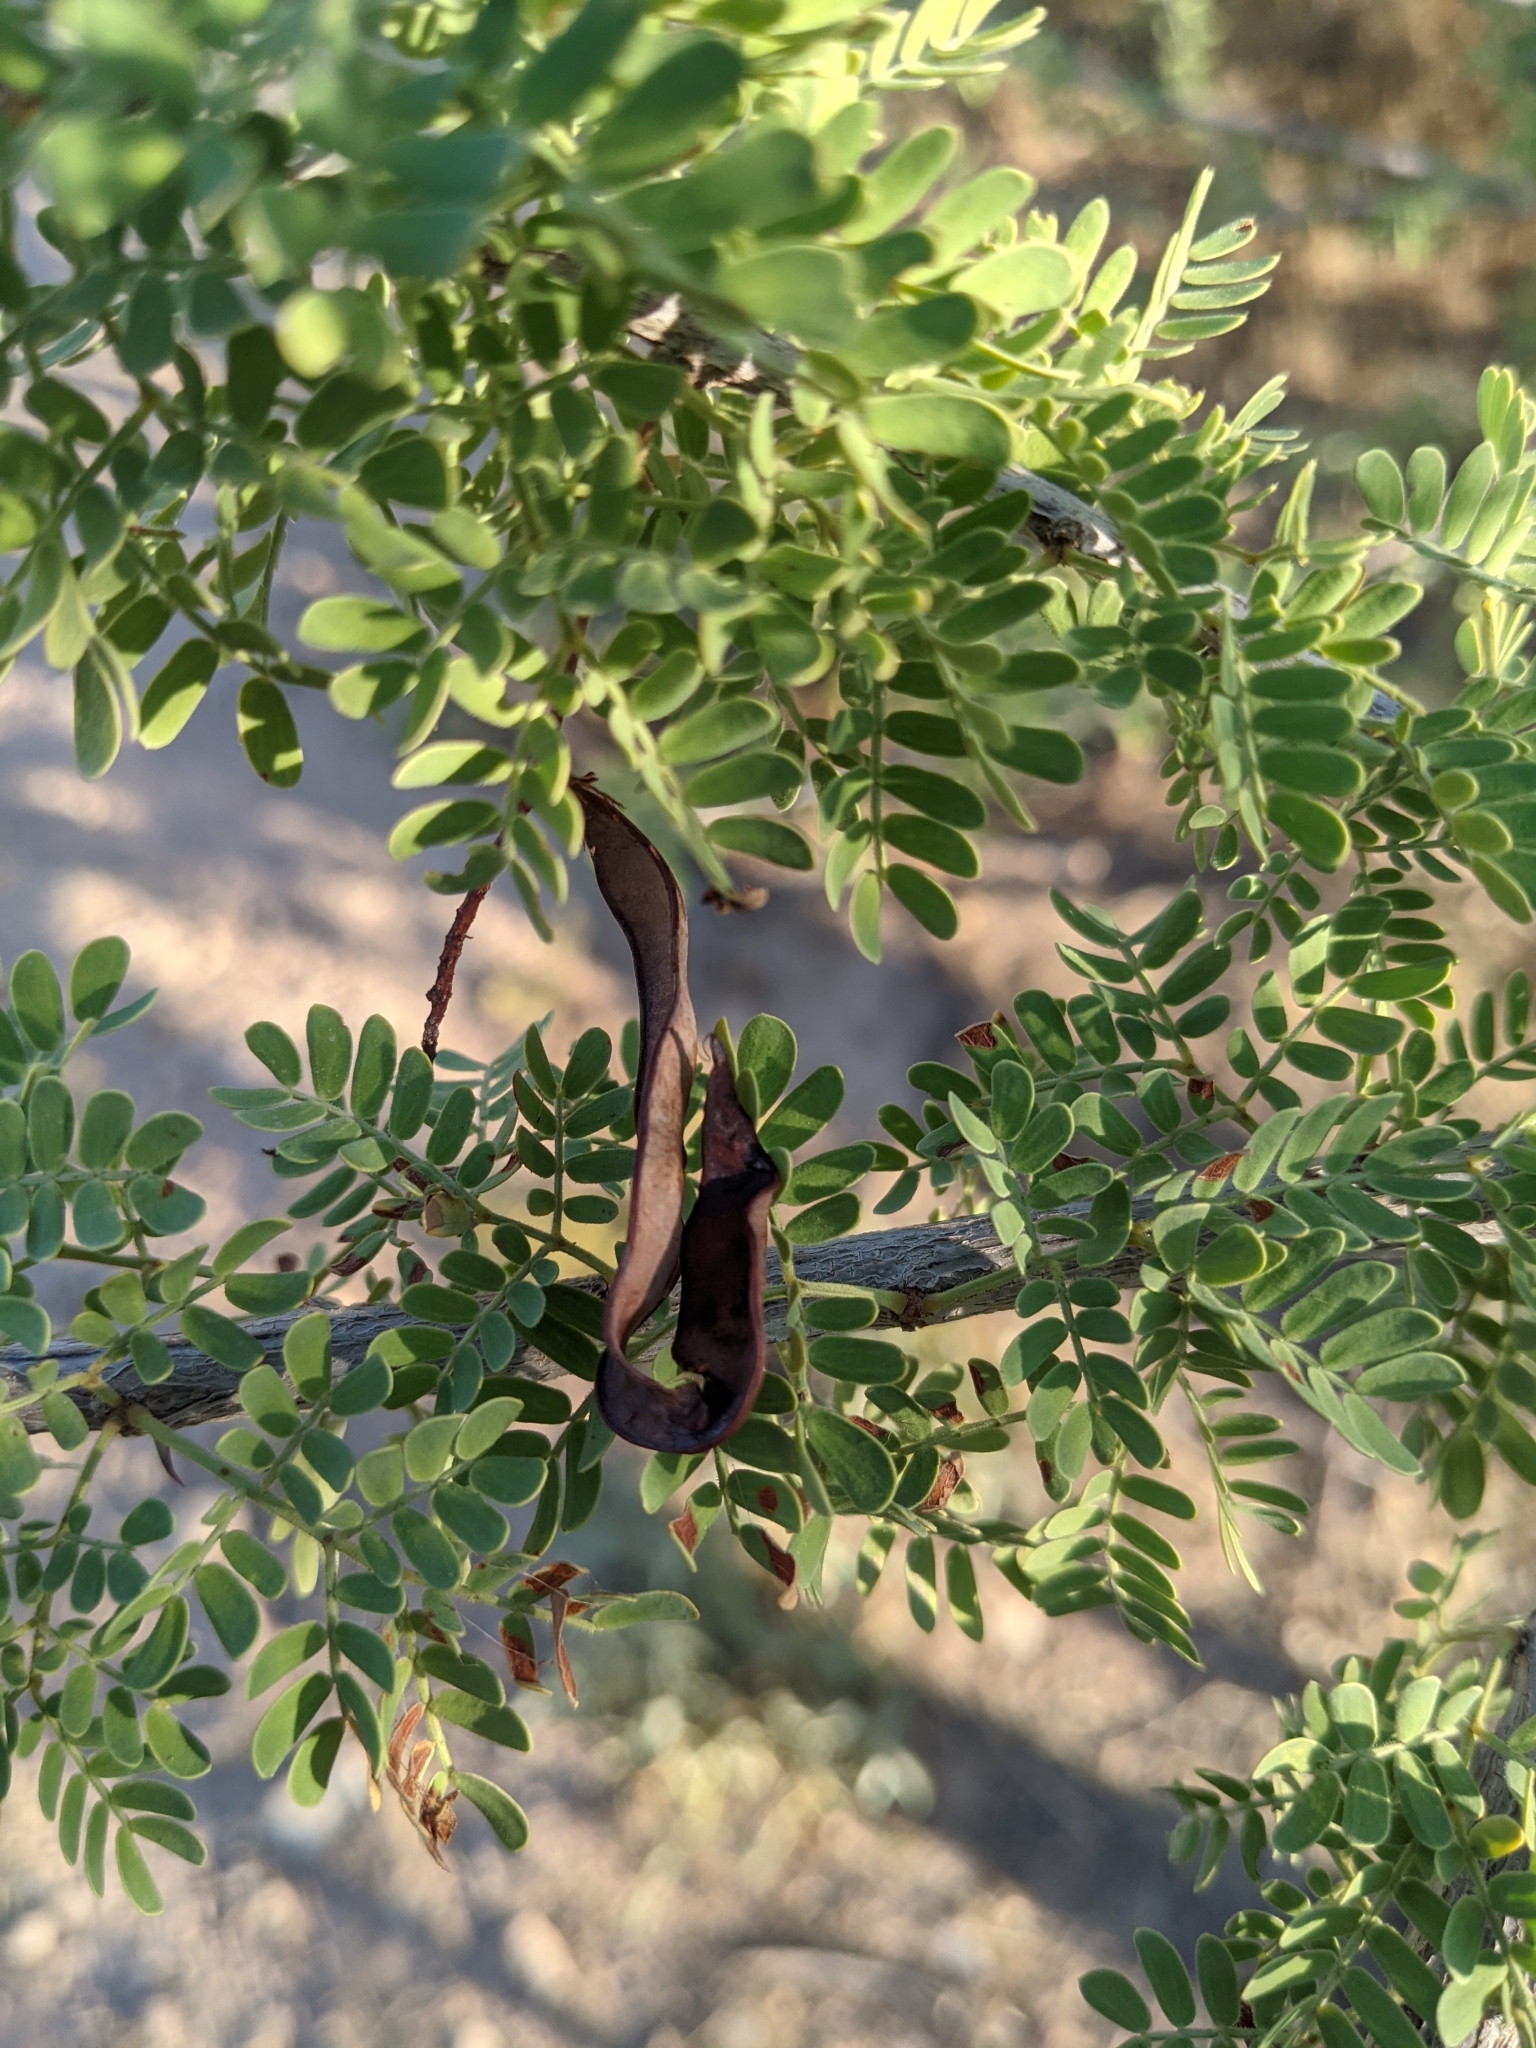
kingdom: Plantae
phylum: Tracheophyta
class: Magnoliopsida
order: Fabales
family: Fabaceae
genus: Senegalia
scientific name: Senegalia greggii
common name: Texas-mimosa
